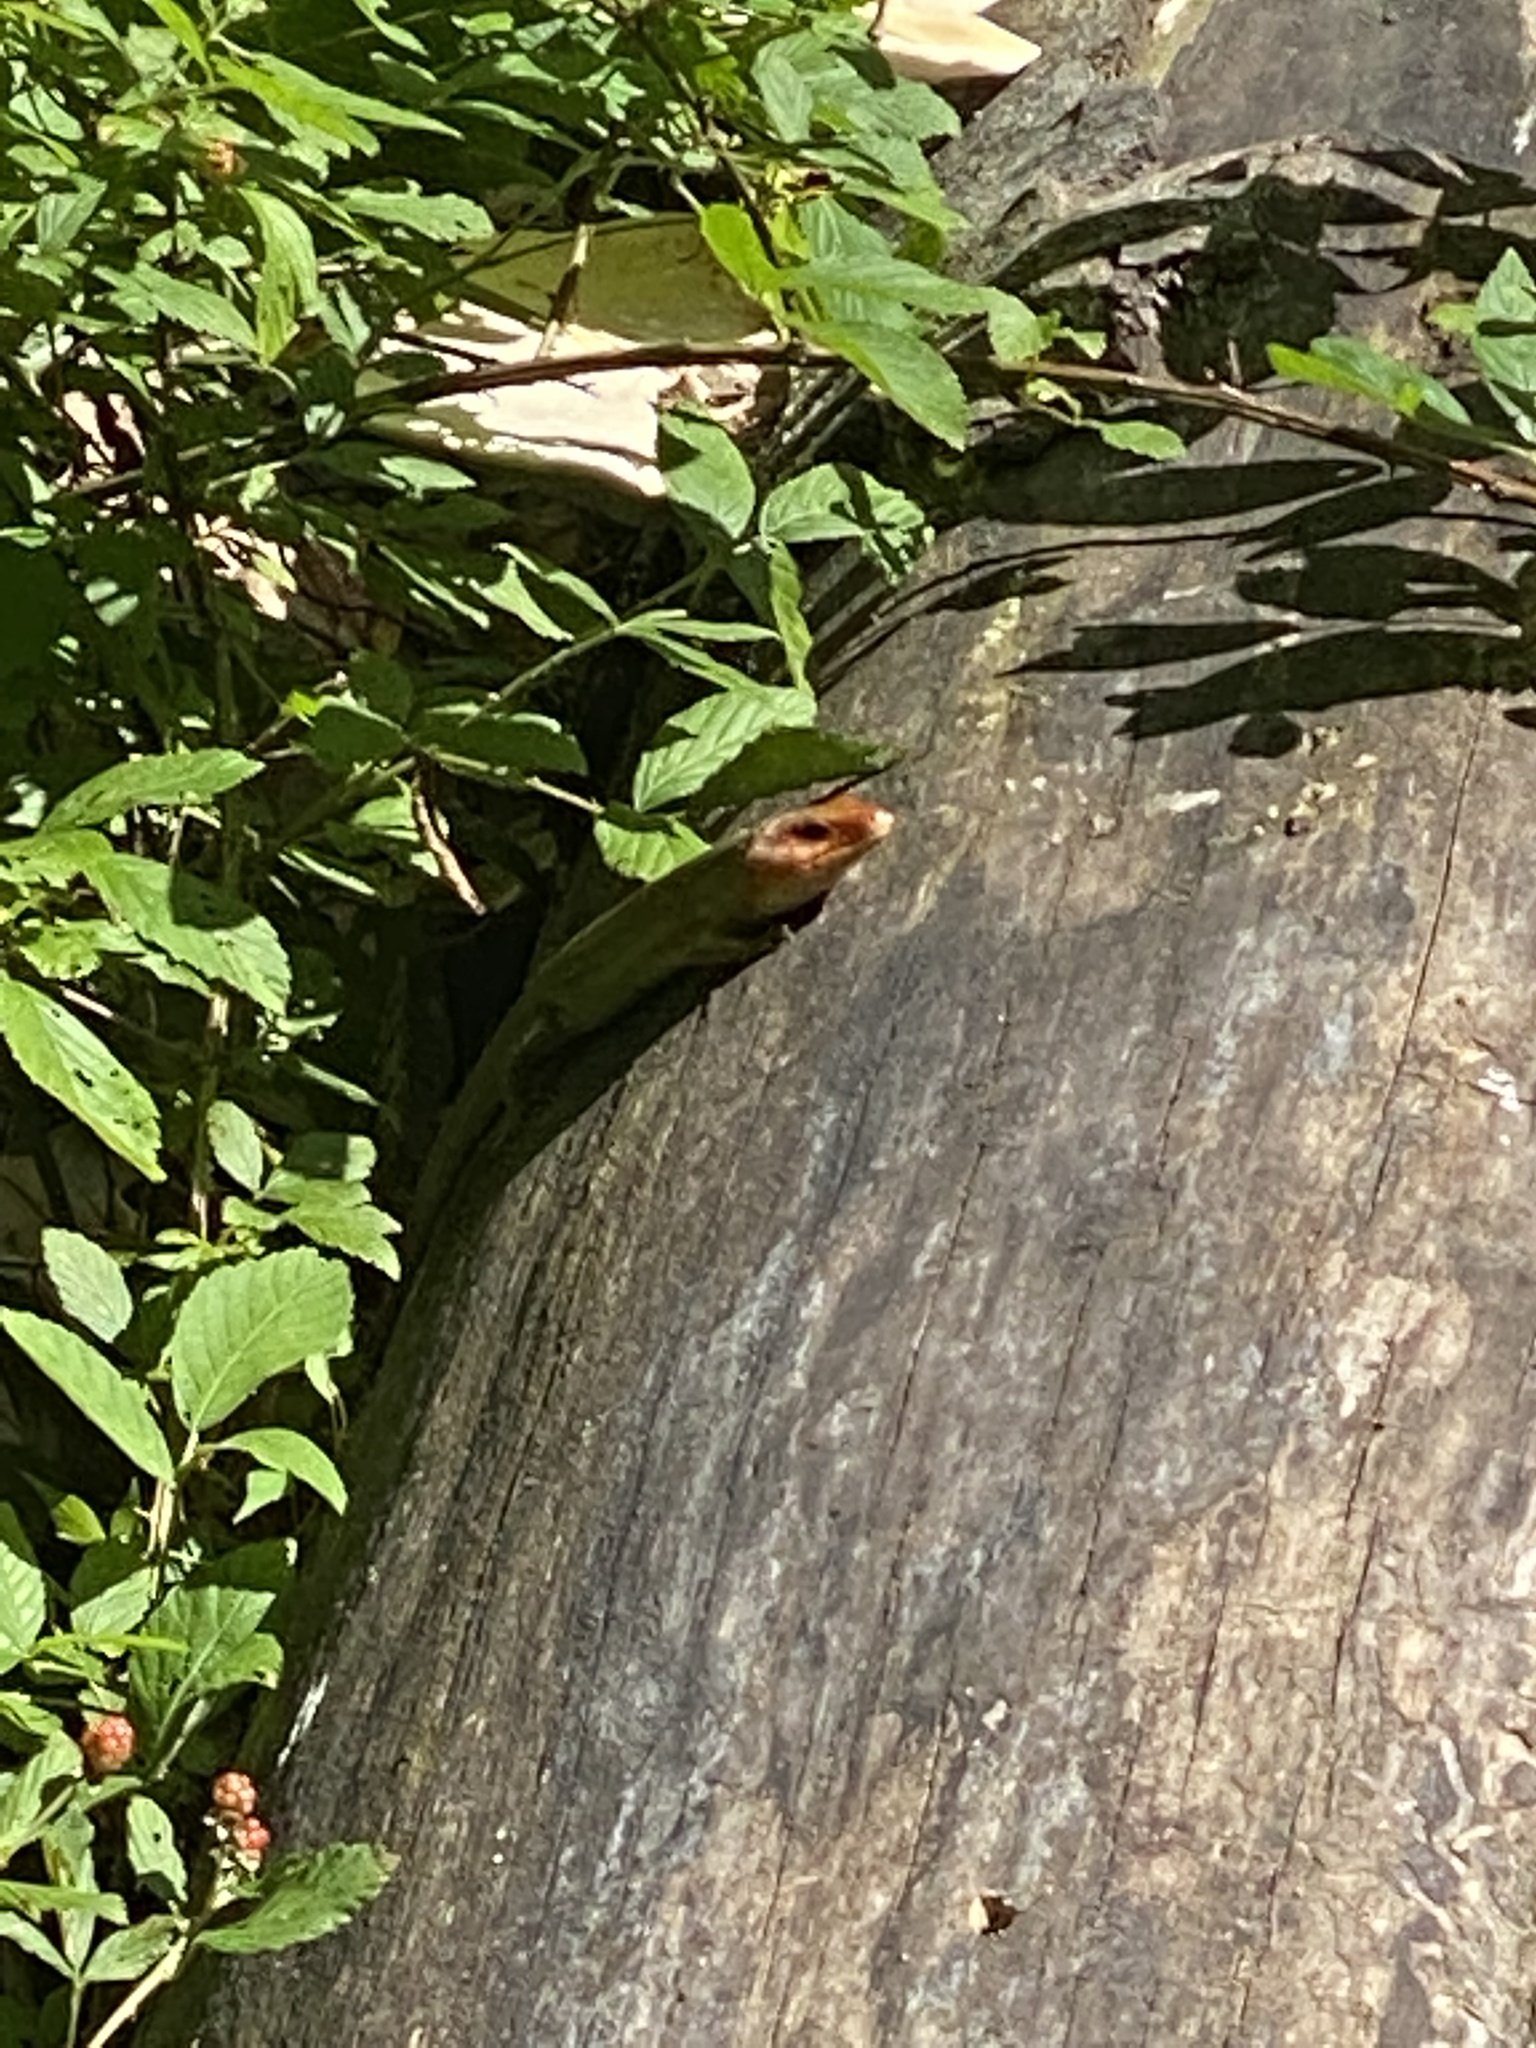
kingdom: Animalia
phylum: Chordata
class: Squamata
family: Scincidae
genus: Plestiodon
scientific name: Plestiodon laticeps
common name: Broadhead skink
